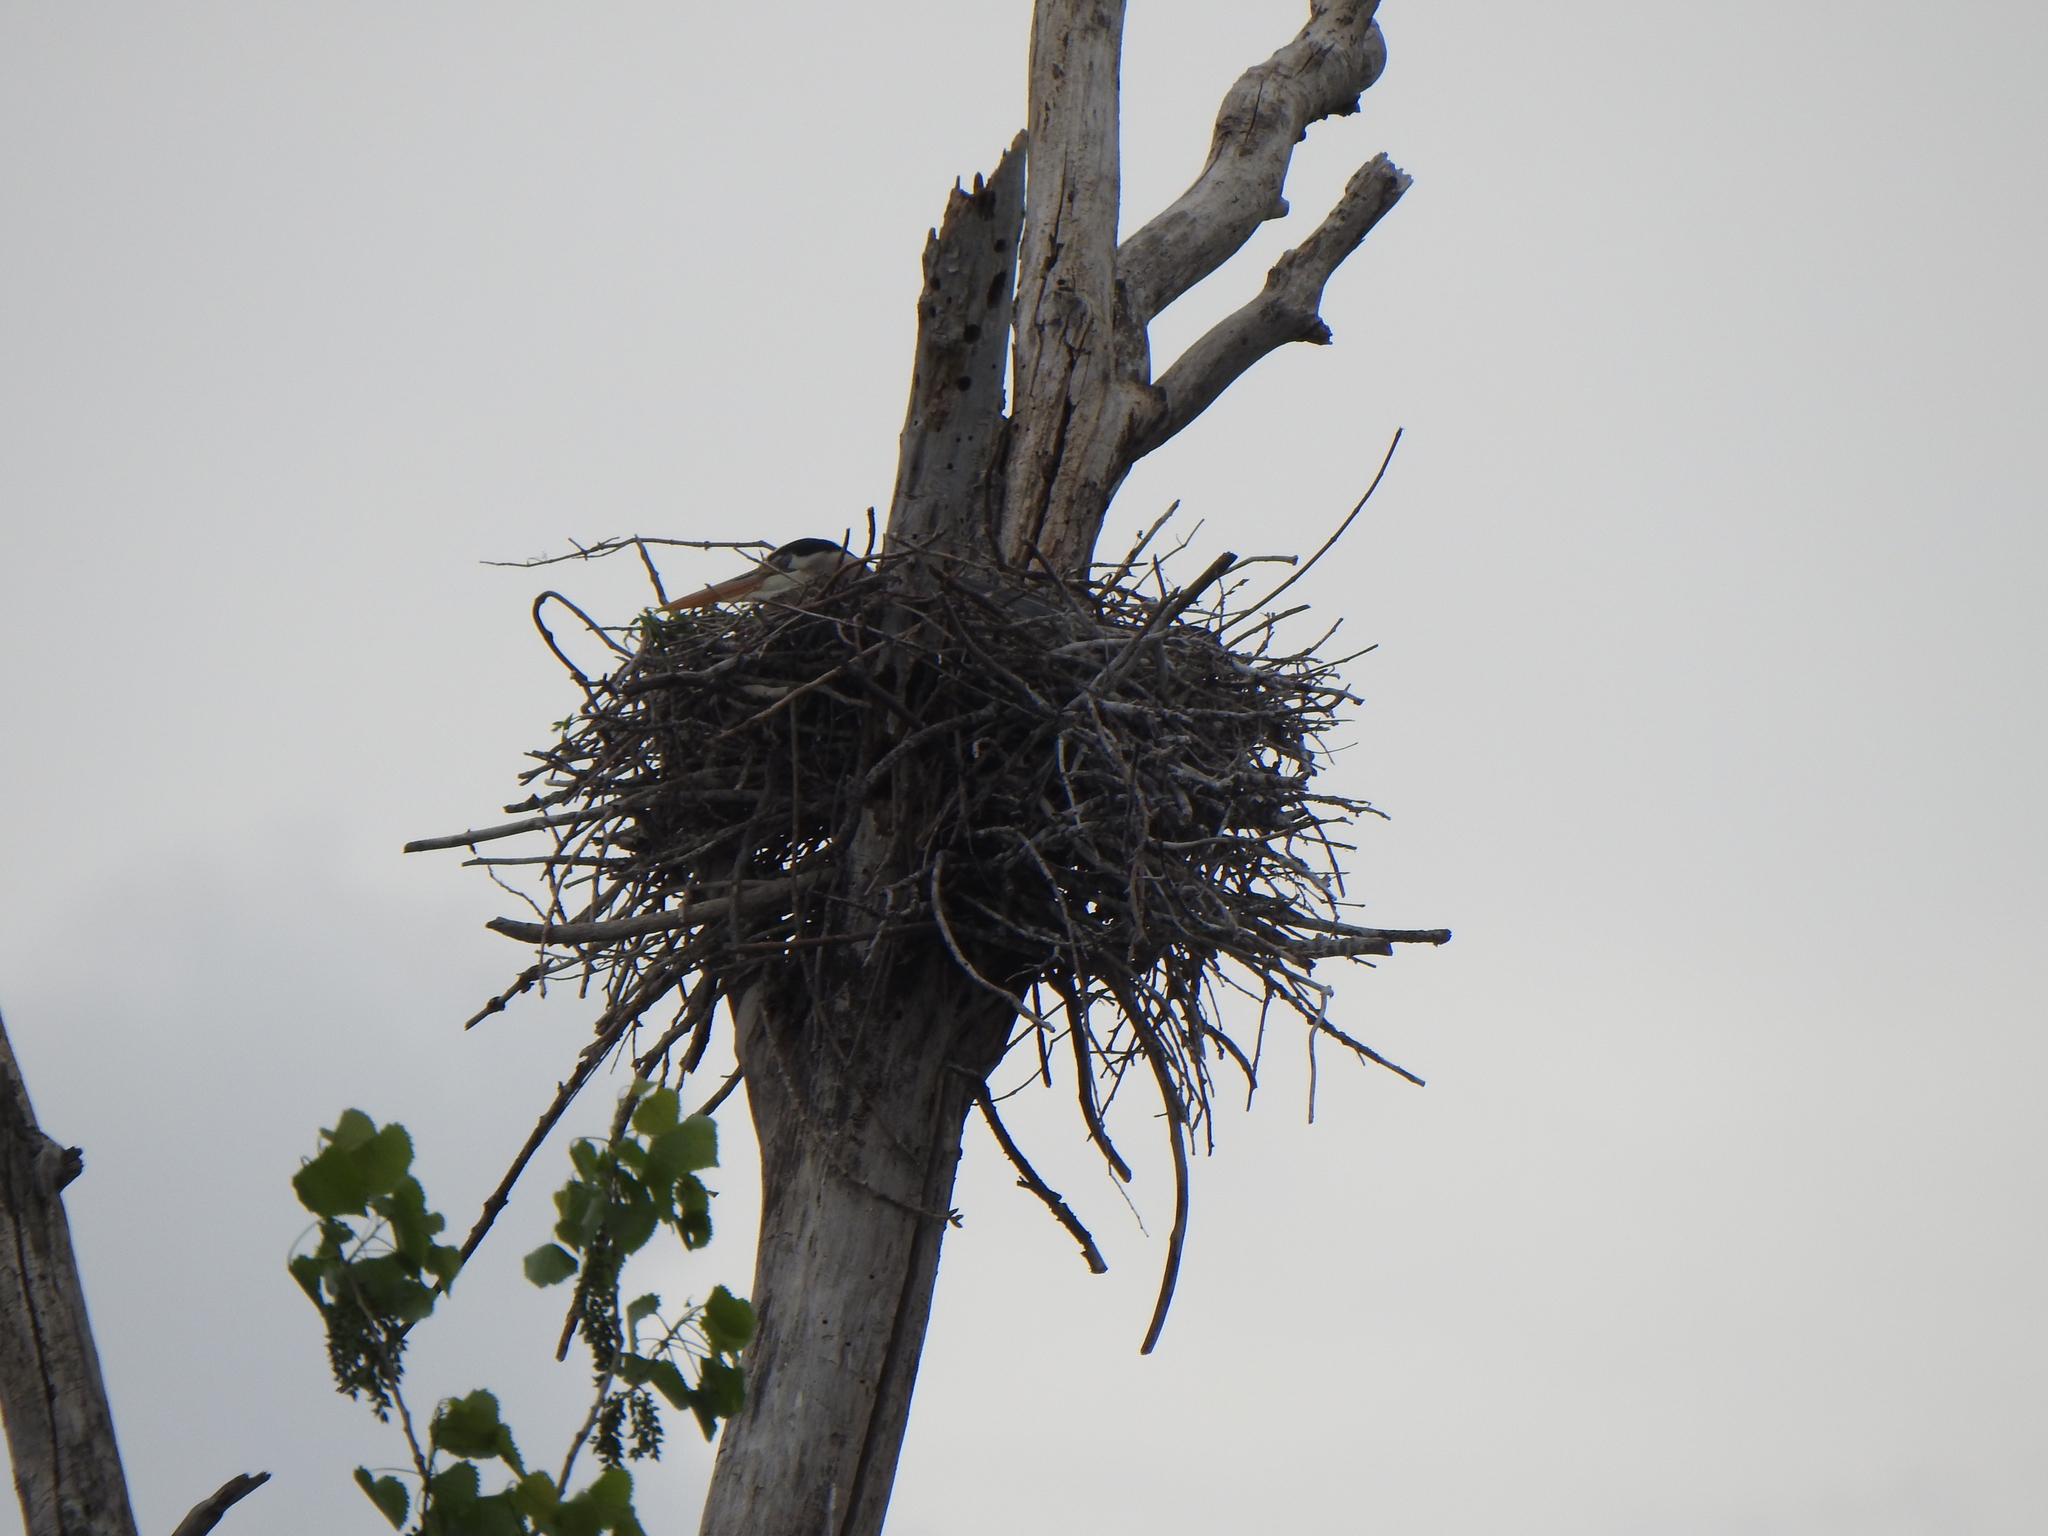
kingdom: Animalia
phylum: Chordata
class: Aves
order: Pelecaniformes
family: Ardeidae
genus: Ardea
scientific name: Ardea herodias
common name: Great blue heron
